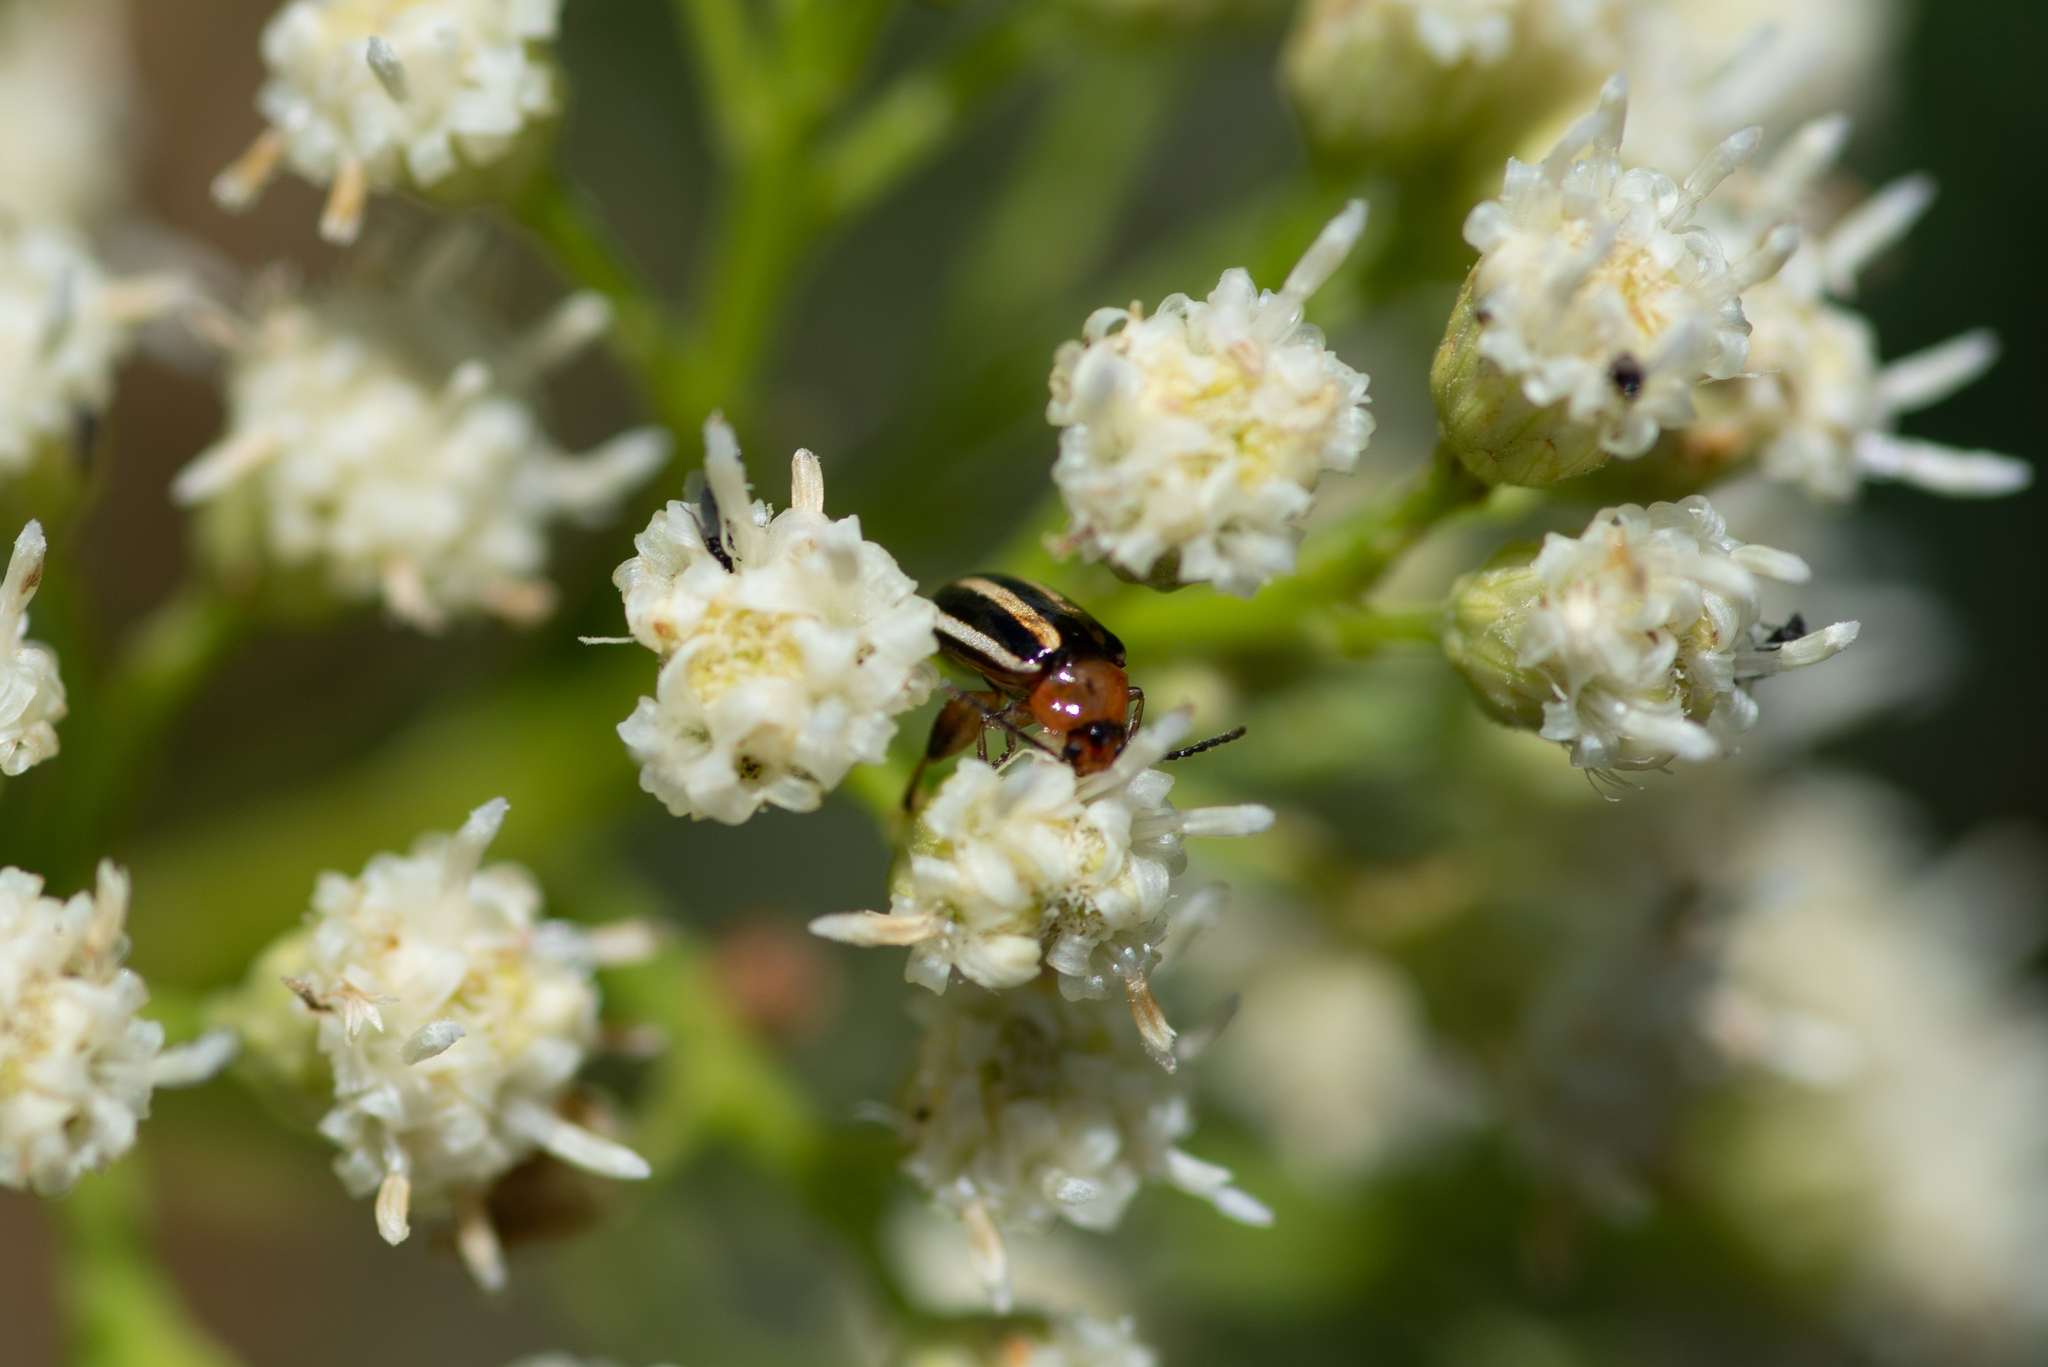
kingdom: Animalia
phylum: Arthropoda
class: Insecta
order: Coleoptera
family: Chrysomelidae
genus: Disonycha
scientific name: Disonycha glabrata
